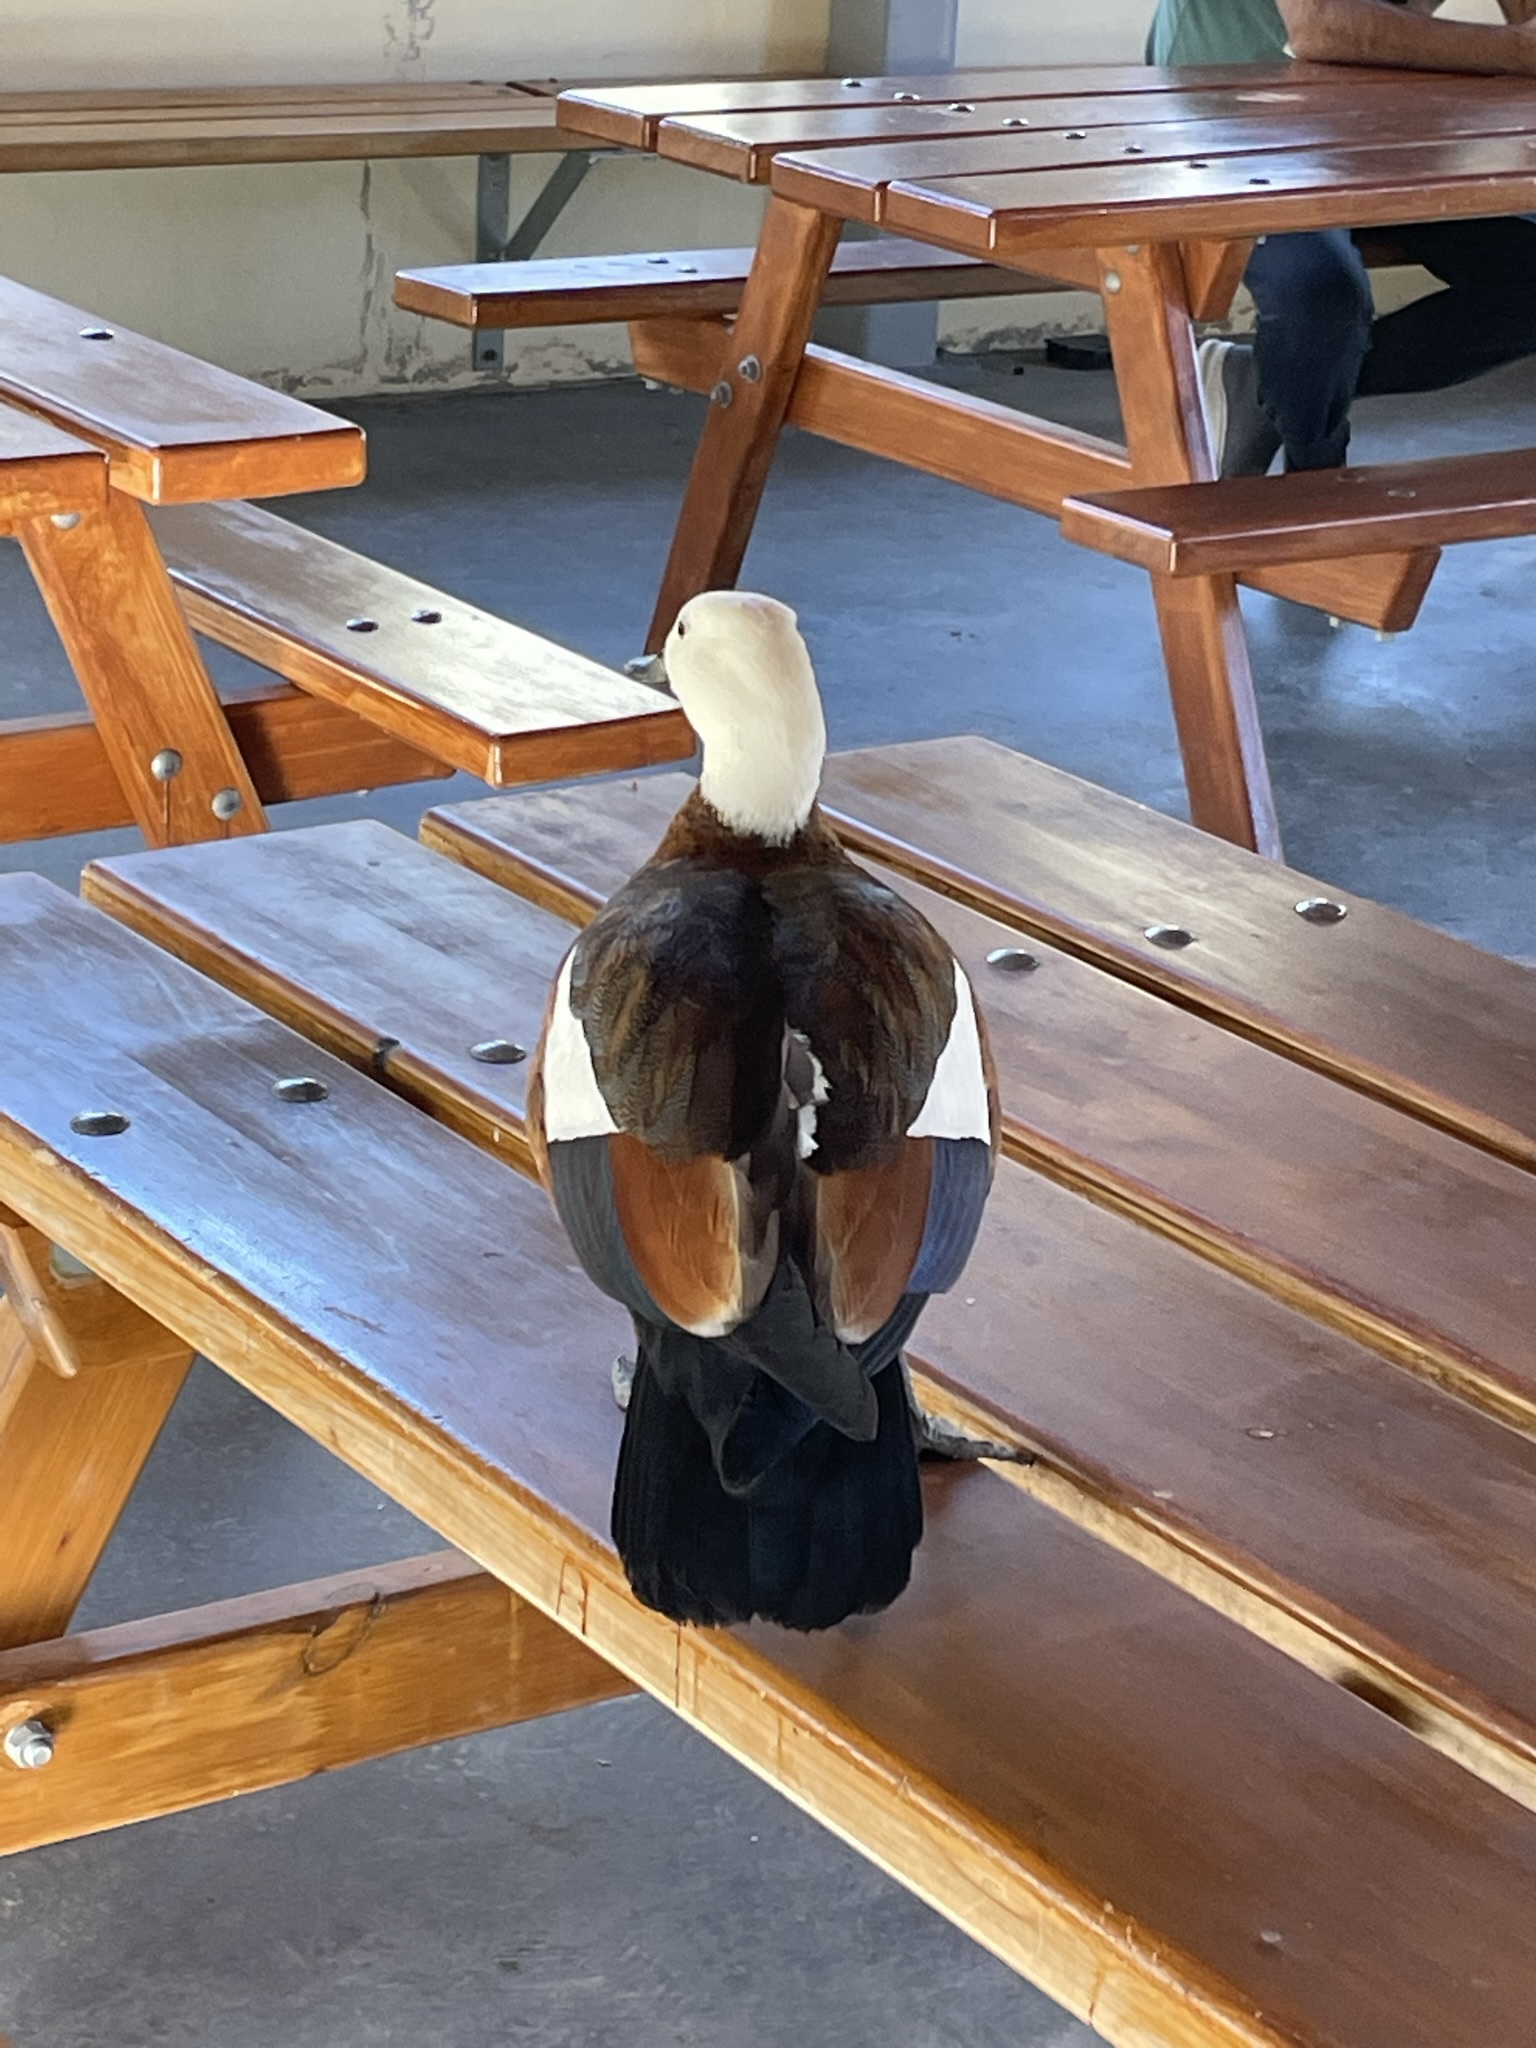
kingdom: Animalia
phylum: Chordata
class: Aves
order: Anseriformes
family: Anatidae
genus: Tadorna
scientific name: Tadorna variegata
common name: Paradise shelduck
